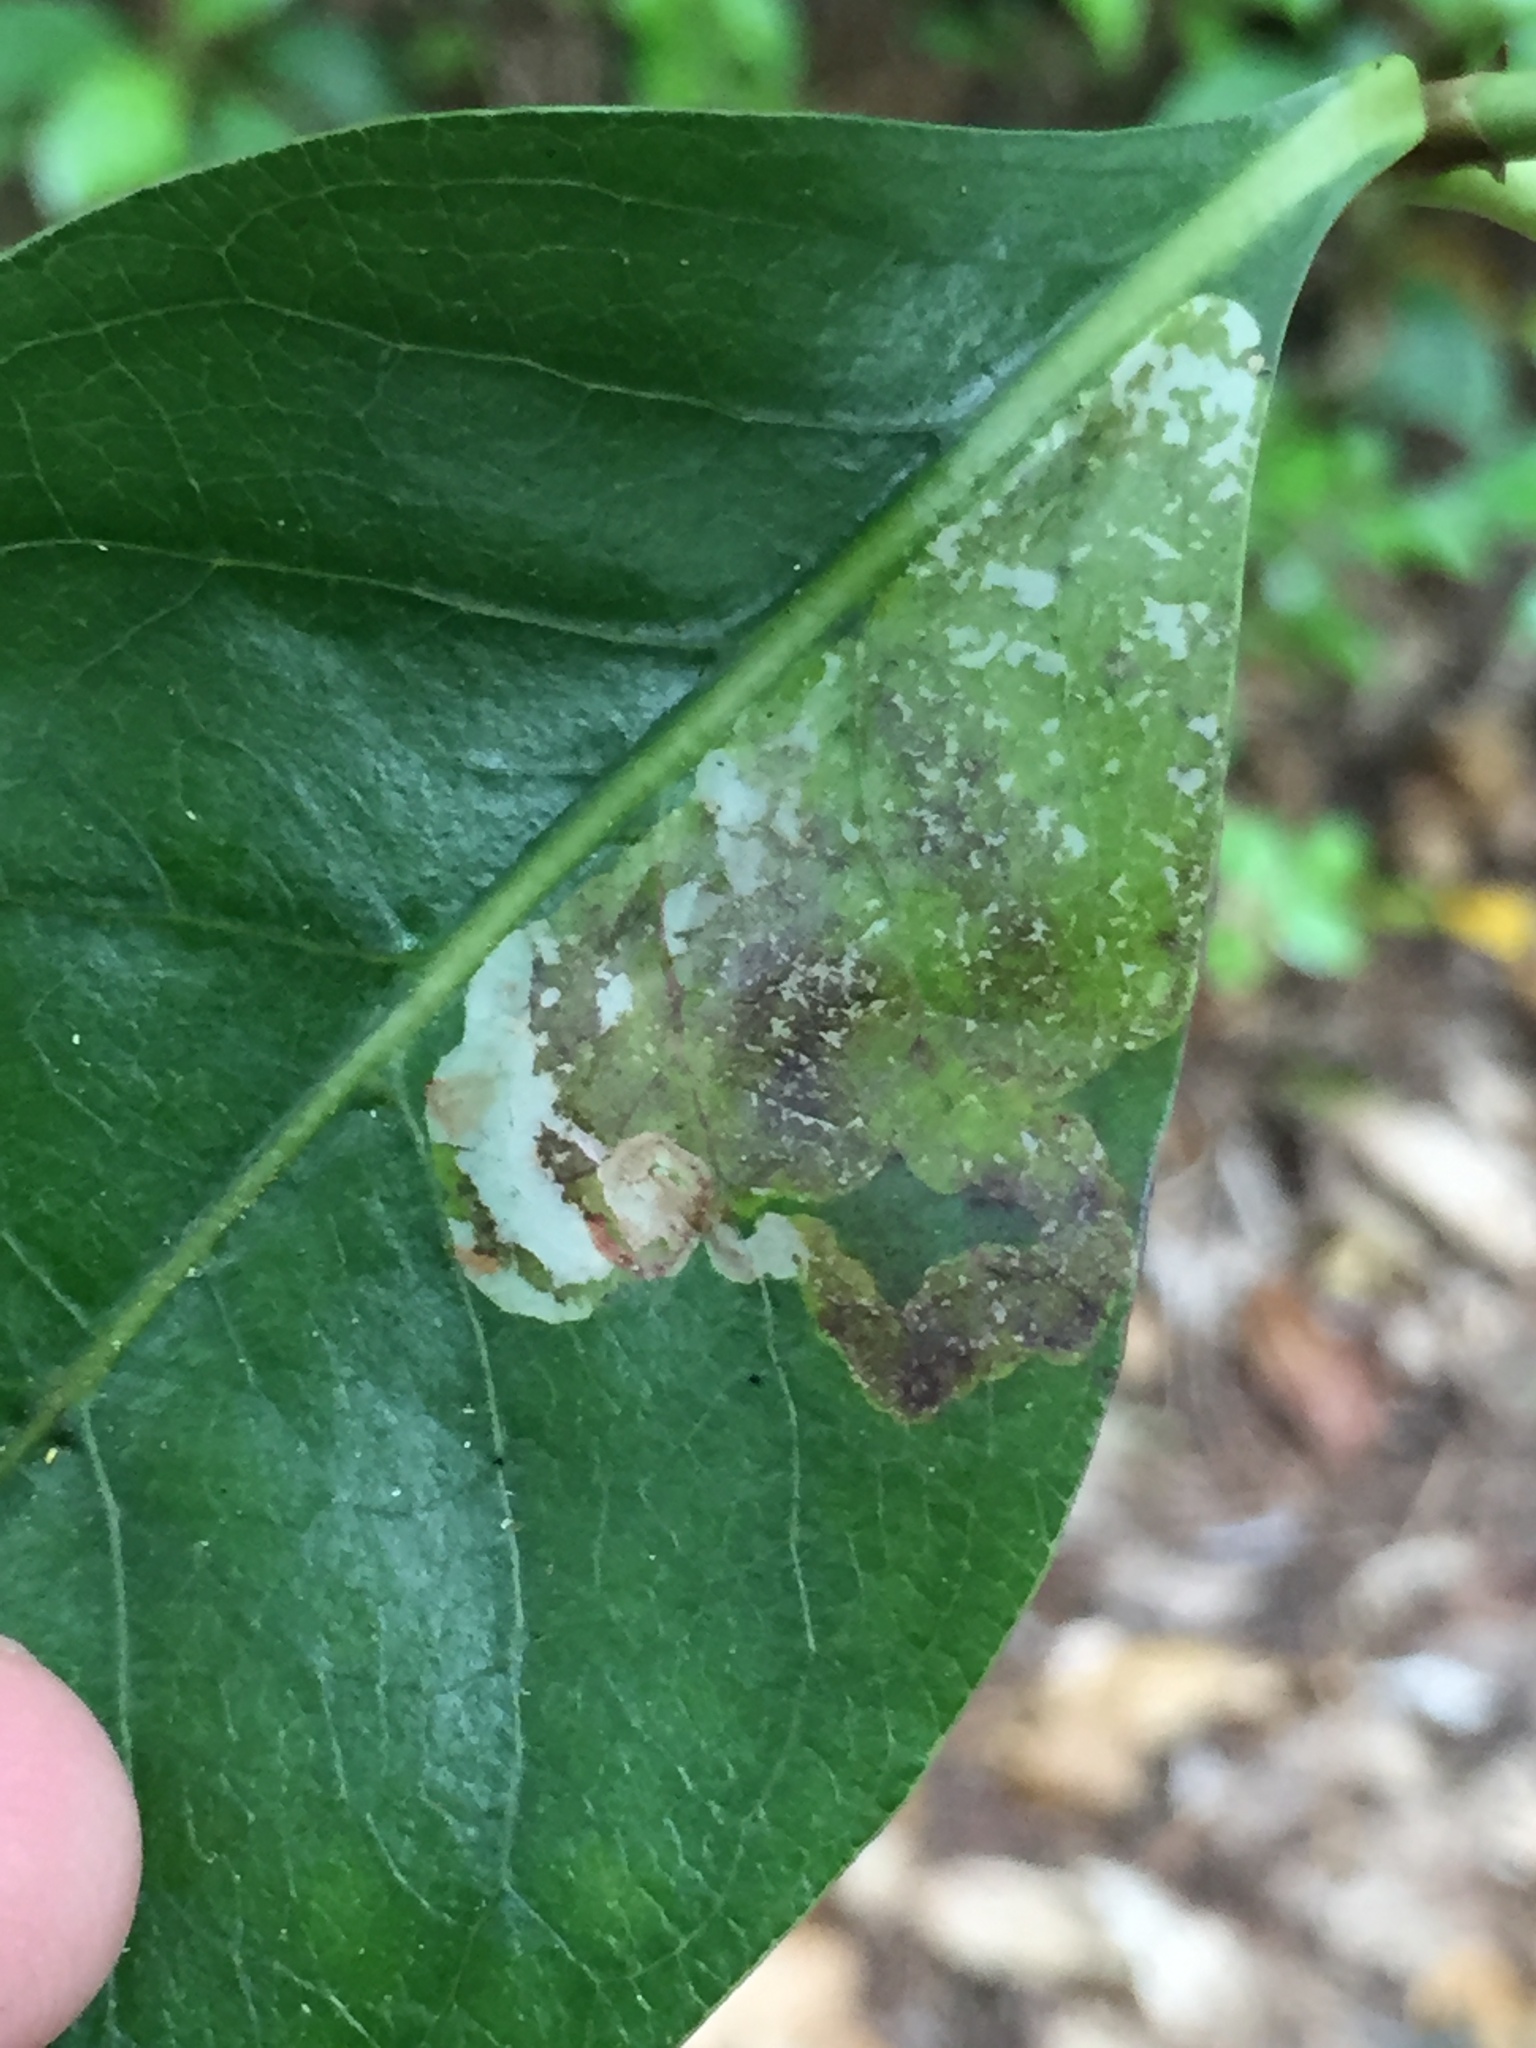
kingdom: Animalia
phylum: Arthropoda
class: Insecta
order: Lepidoptera
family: Gracillariidae
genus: Corythoxestis
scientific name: Corythoxestis zorionella
